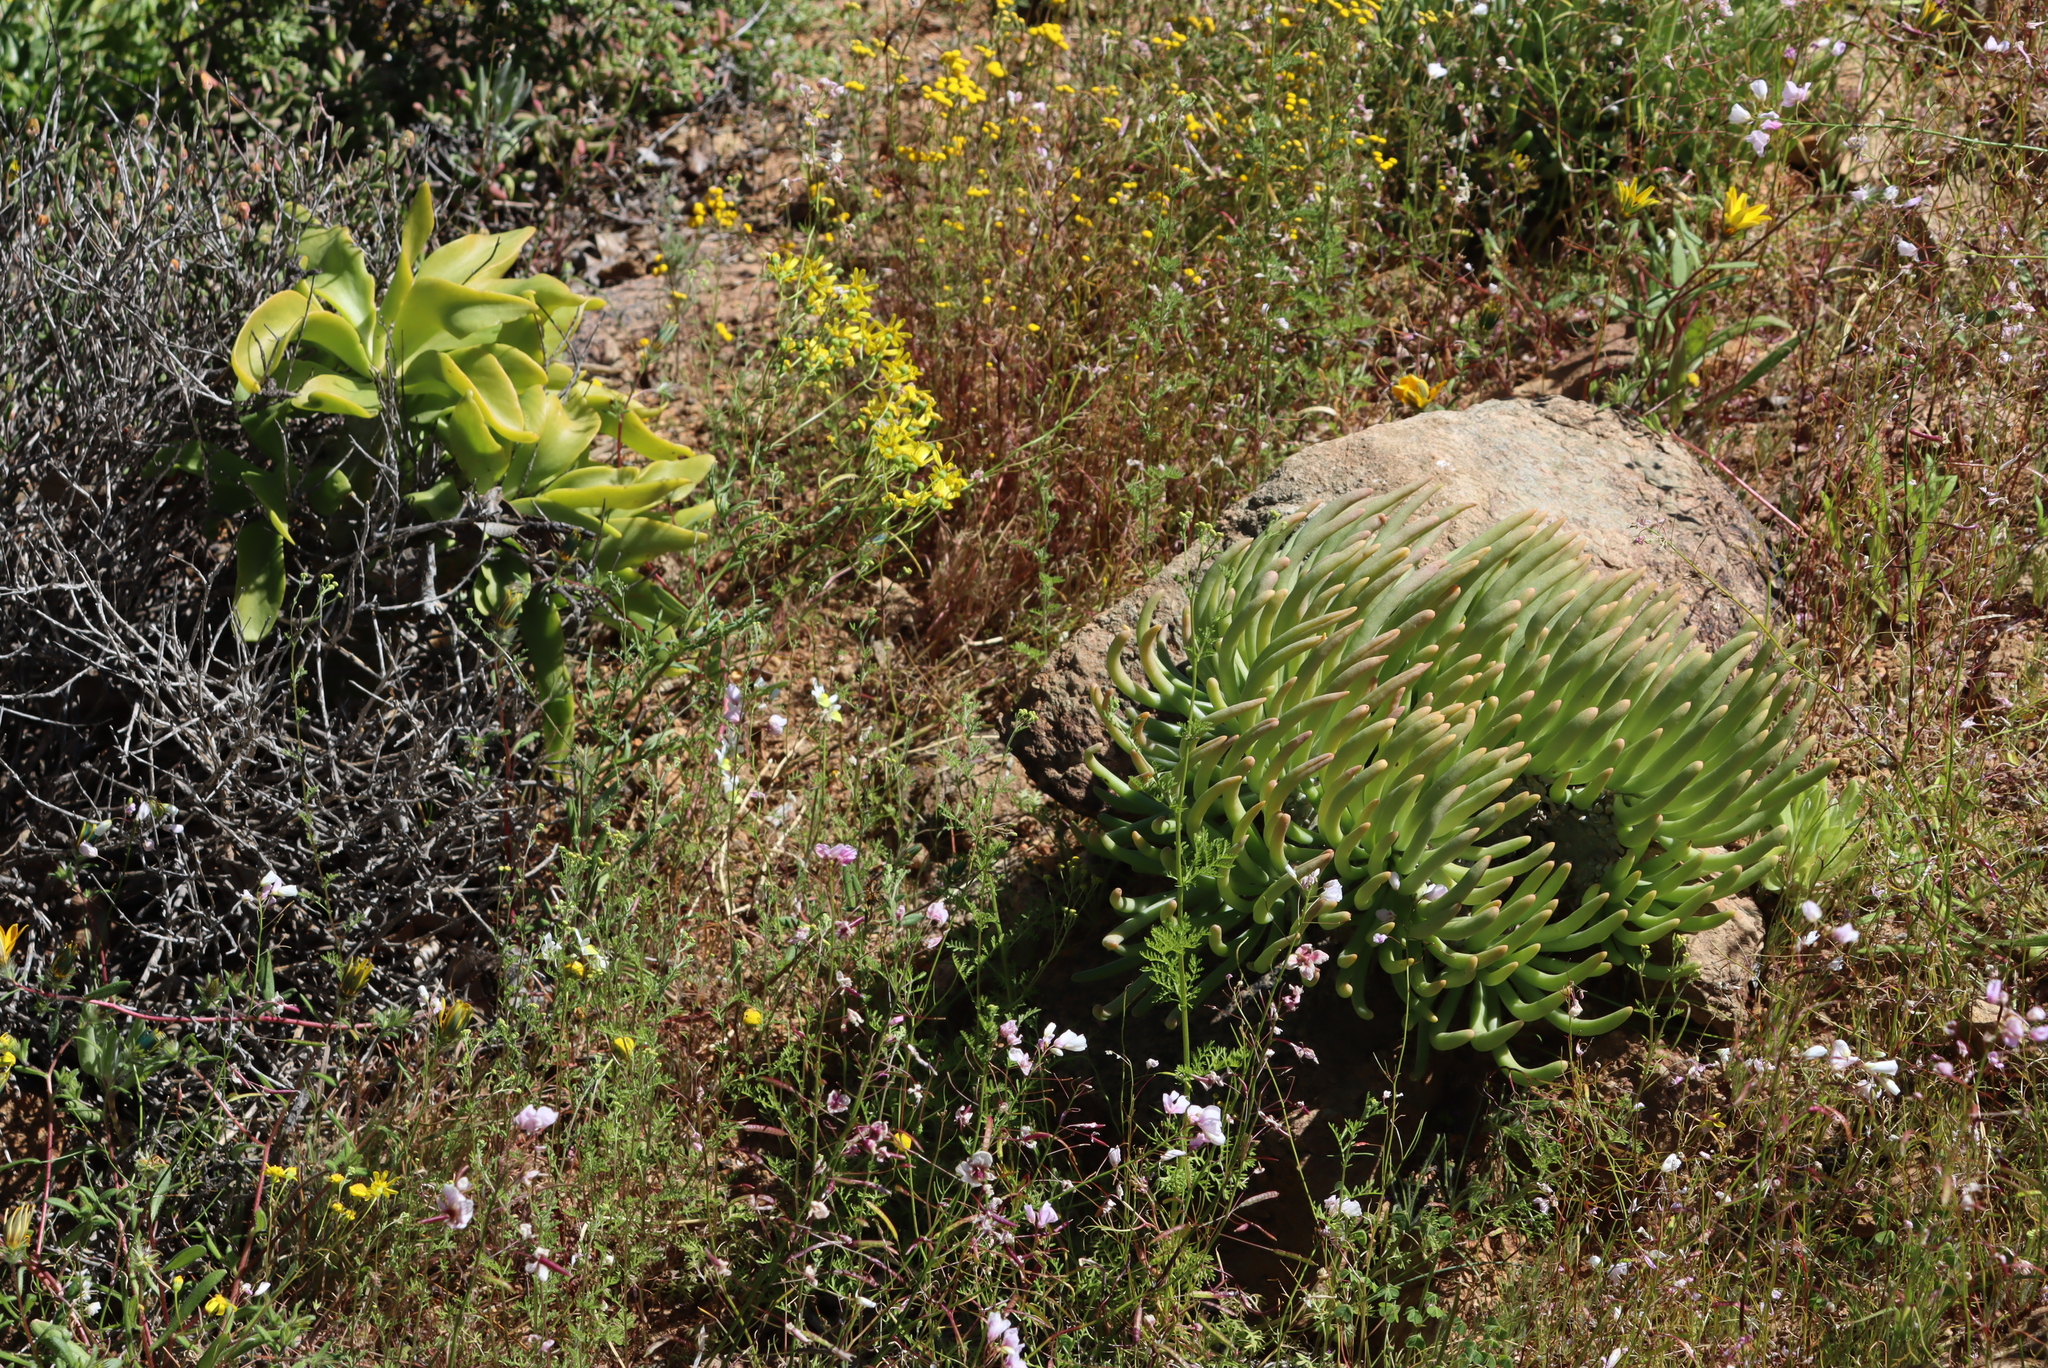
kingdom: Plantae
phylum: Tracheophyta
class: Magnoliopsida
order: Saxifragales
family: Crassulaceae
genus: Tylecodon
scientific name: Tylecodon hallii
